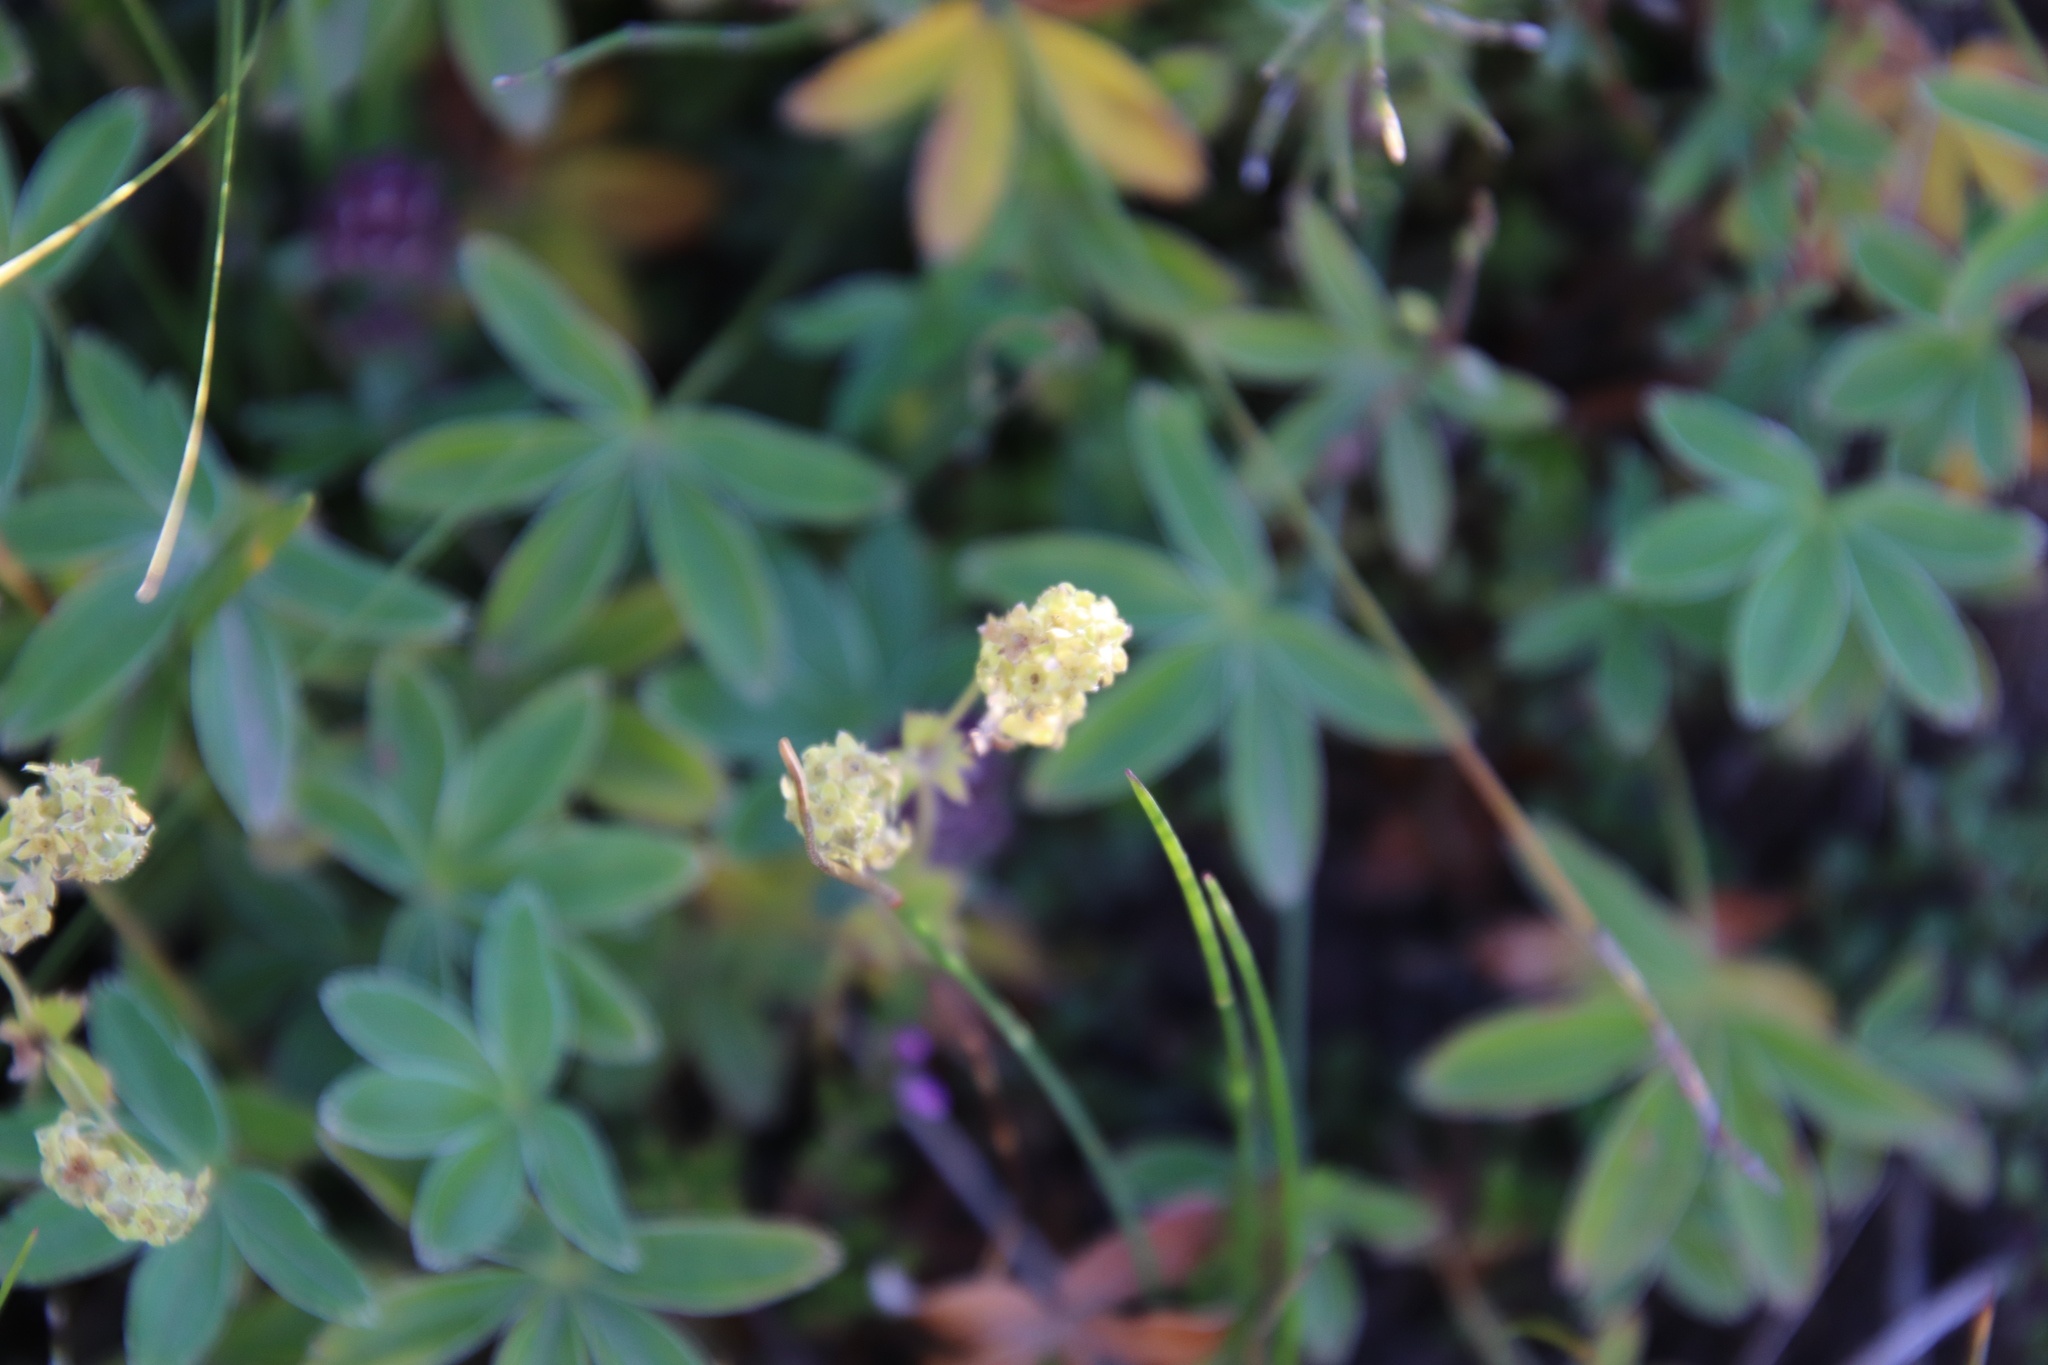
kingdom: Plantae
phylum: Tracheophyta
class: Magnoliopsida
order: Rosales
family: Rosaceae
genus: Alchemilla
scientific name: Alchemilla alpina
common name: Alpine lady's-mantle
